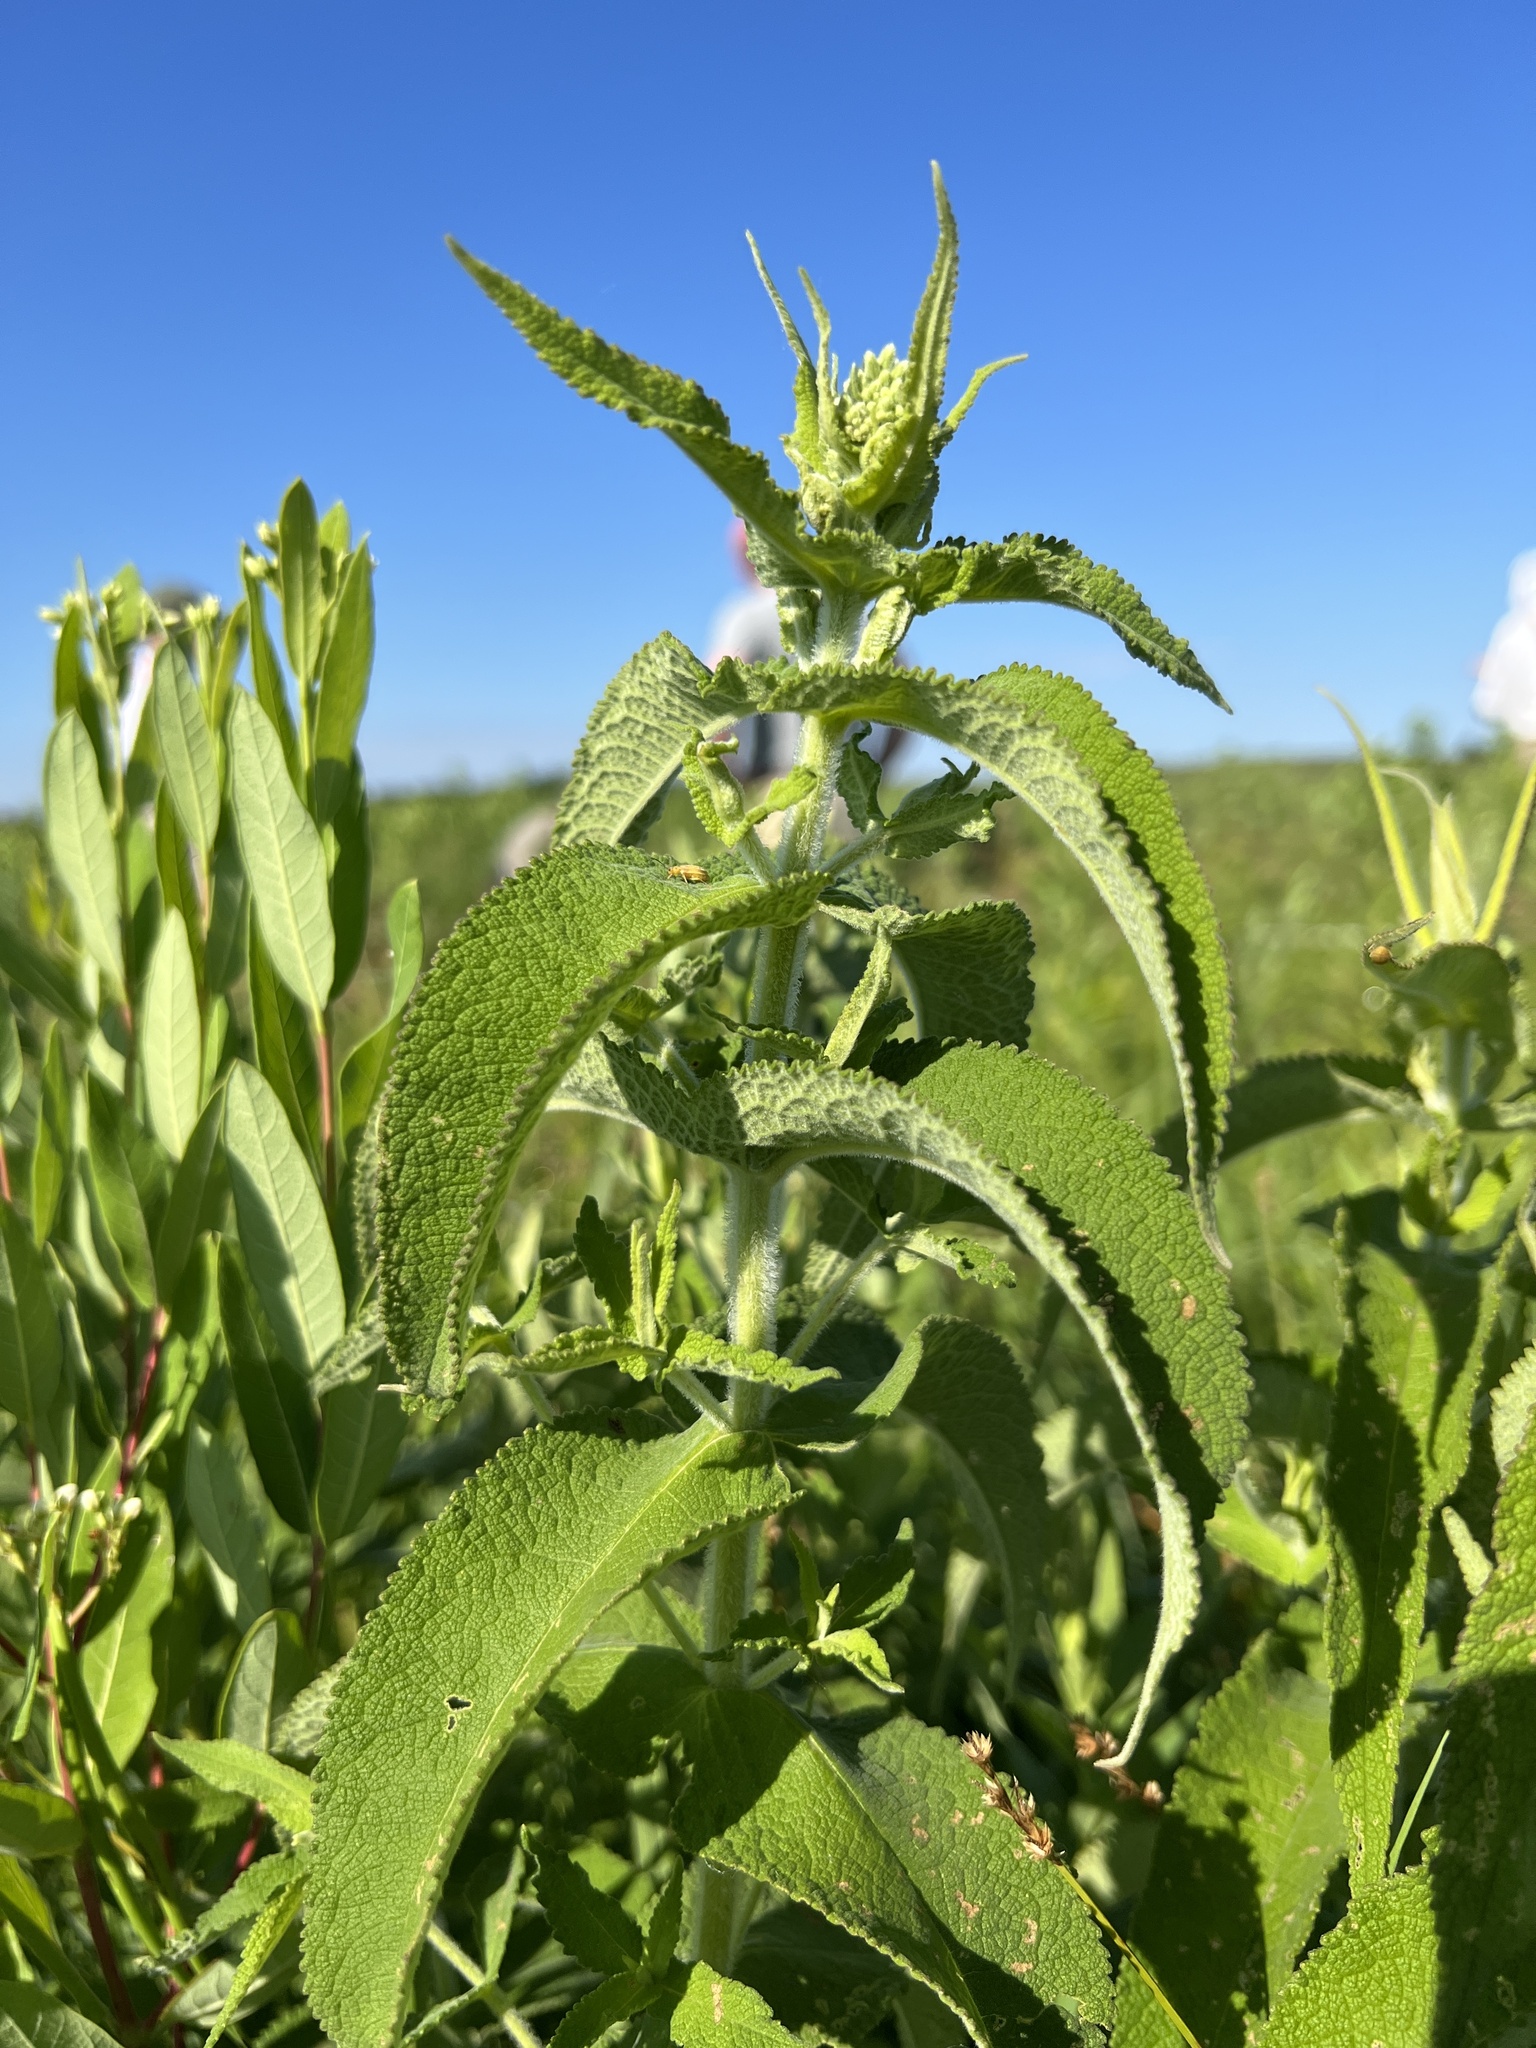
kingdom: Plantae
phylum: Tracheophyta
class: Magnoliopsida
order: Asterales
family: Asteraceae
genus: Eupatorium
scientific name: Eupatorium perfoliatum
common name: Boneset
